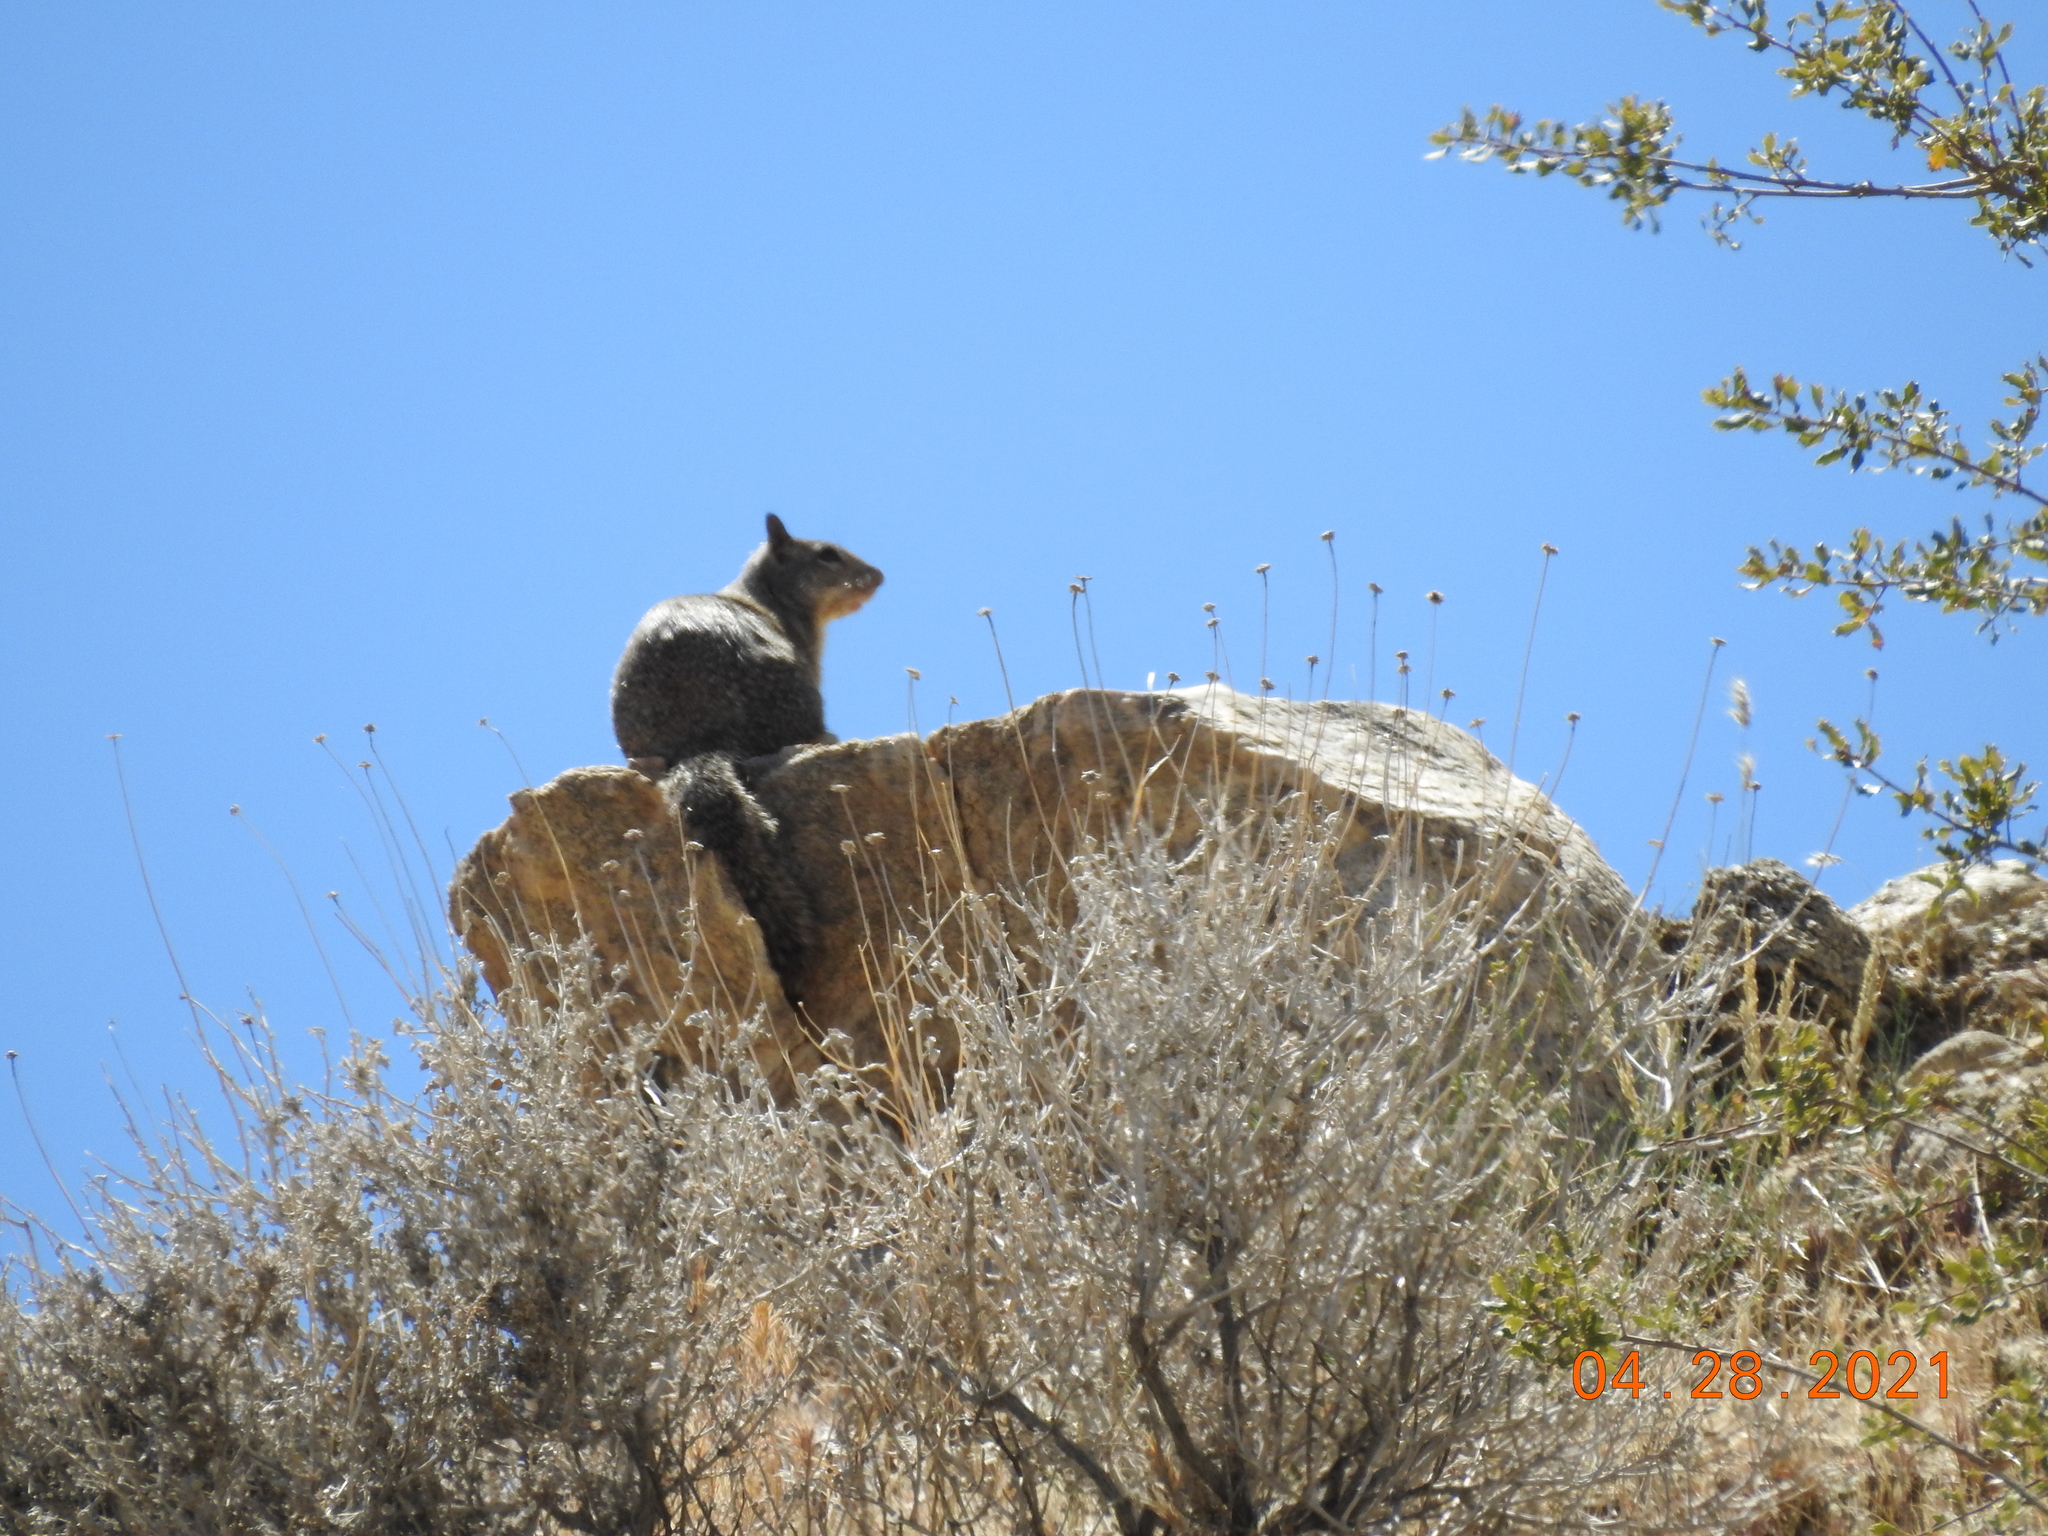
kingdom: Animalia
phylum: Chordata
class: Mammalia
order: Rodentia
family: Sciuridae
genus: Otospermophilus
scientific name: Otospermophilus beecheyi
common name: California ground squirrel
